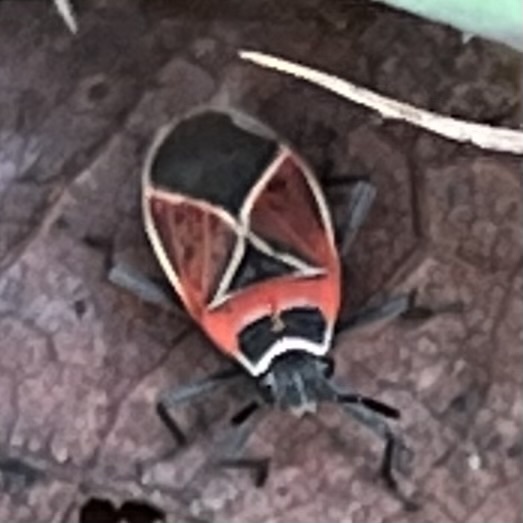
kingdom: Animalia
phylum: Arthropoda
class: Insecta
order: Hemiptera
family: Lygaeidae
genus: Neacoryphus
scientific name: Neacoryphus bicrucis
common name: Lygaeid bug
